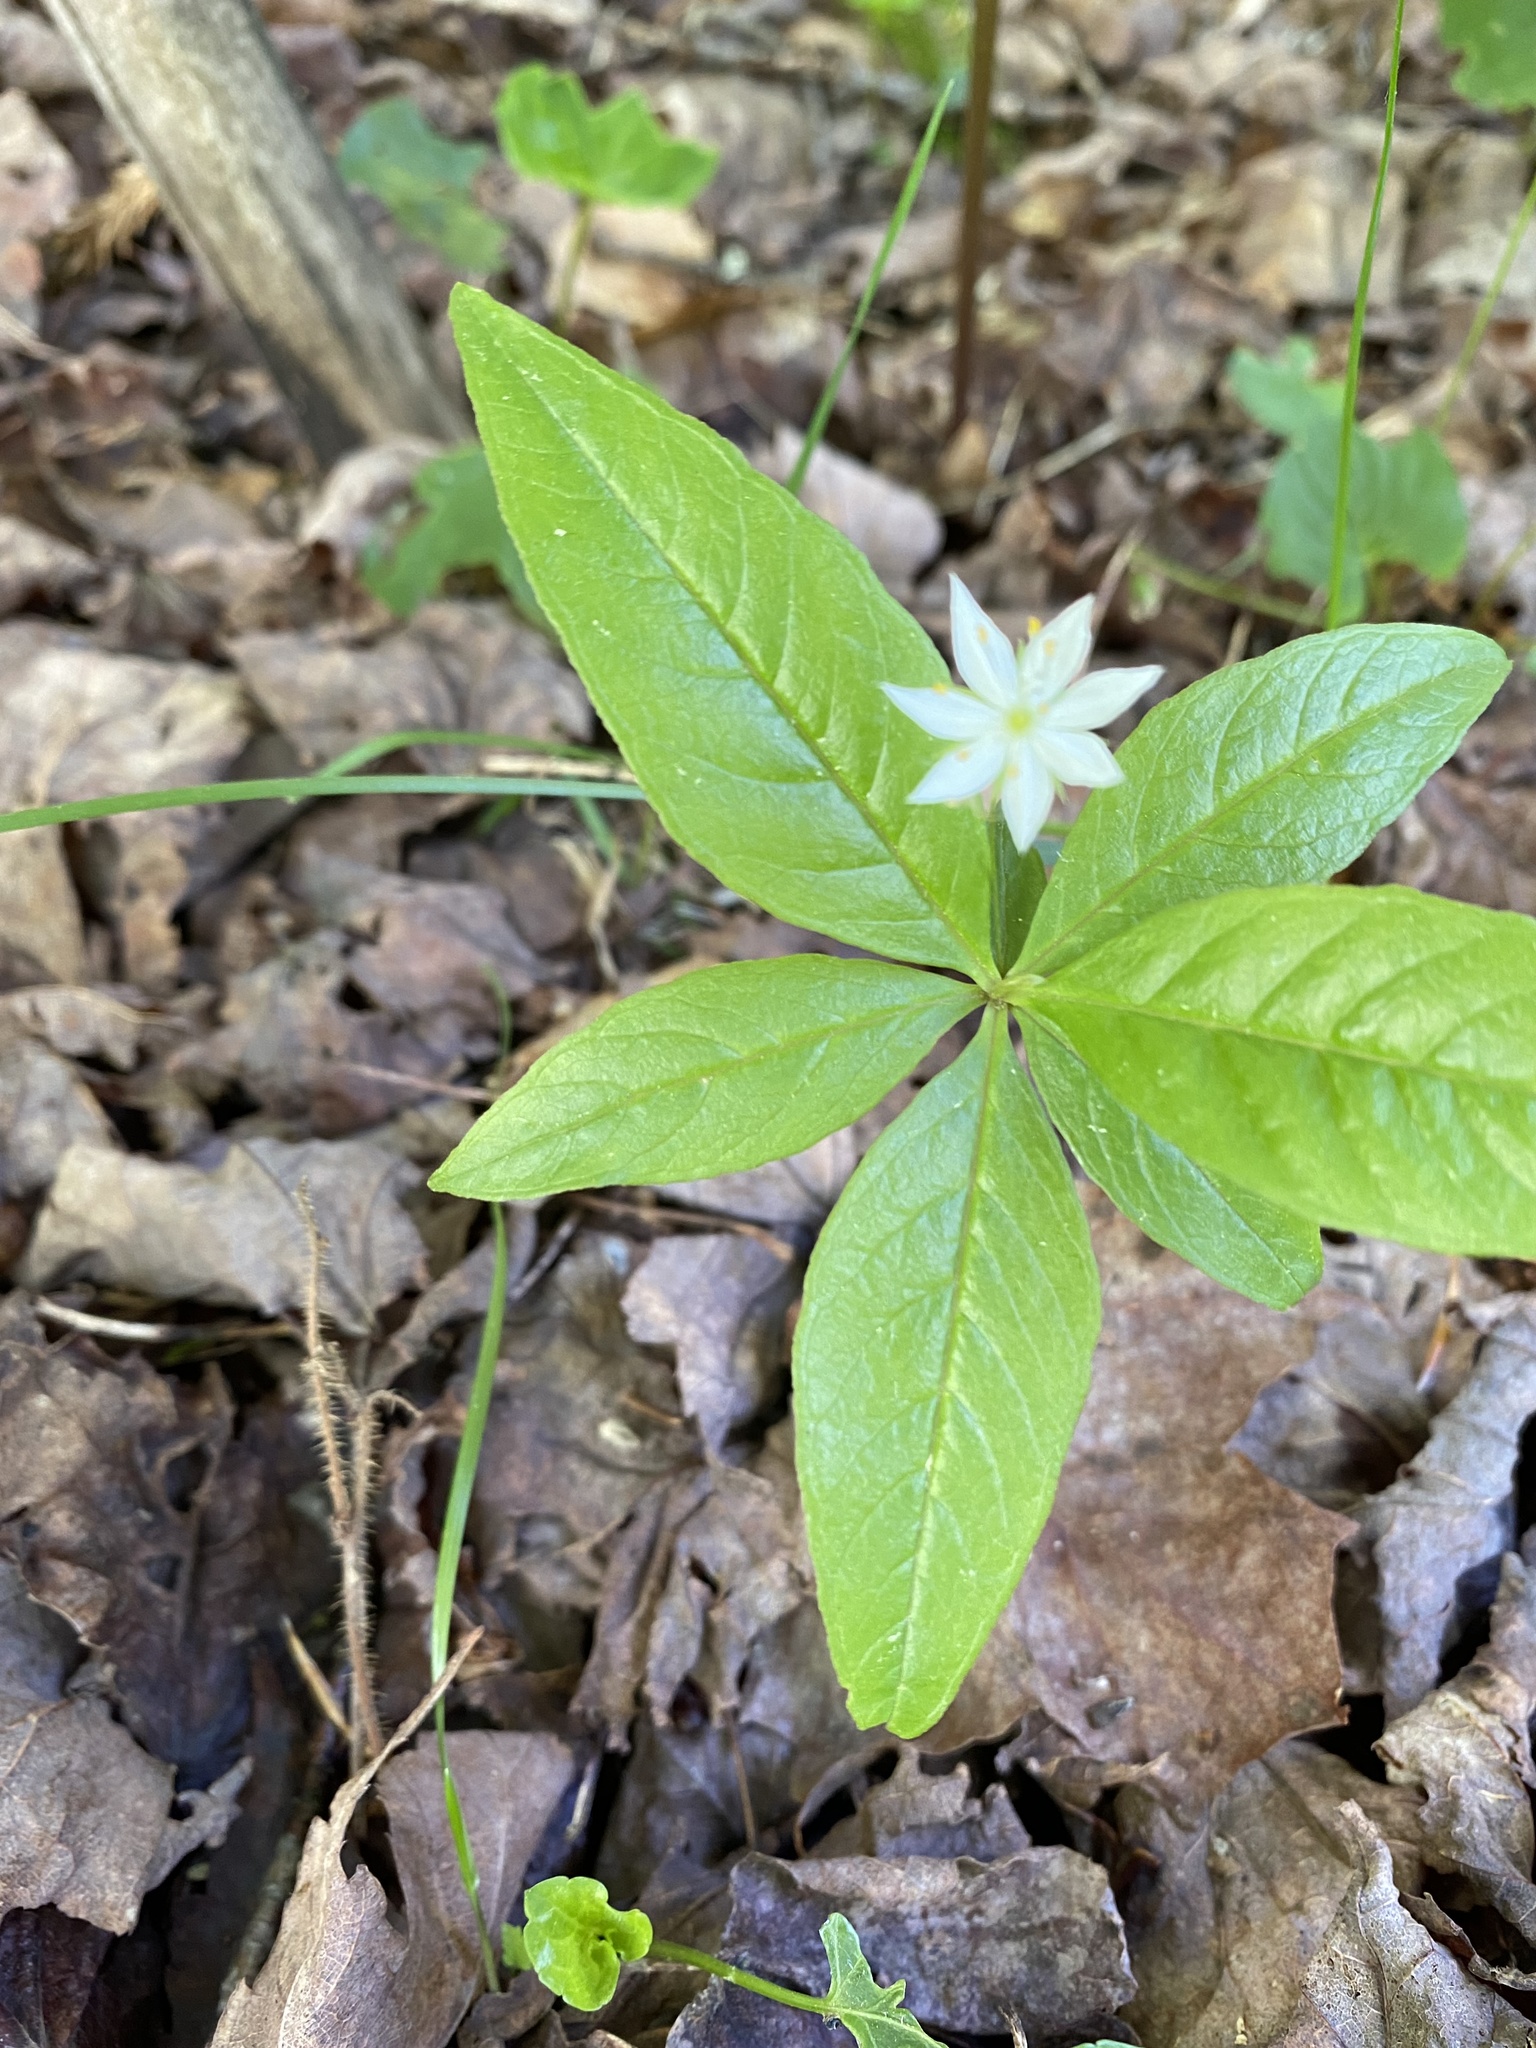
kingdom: Plantae
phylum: Tracheophyta
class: Magnoliopsida
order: Ericales
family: Primulaceae
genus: Lysimachia
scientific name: Lysimachia borealis
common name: American starflower
